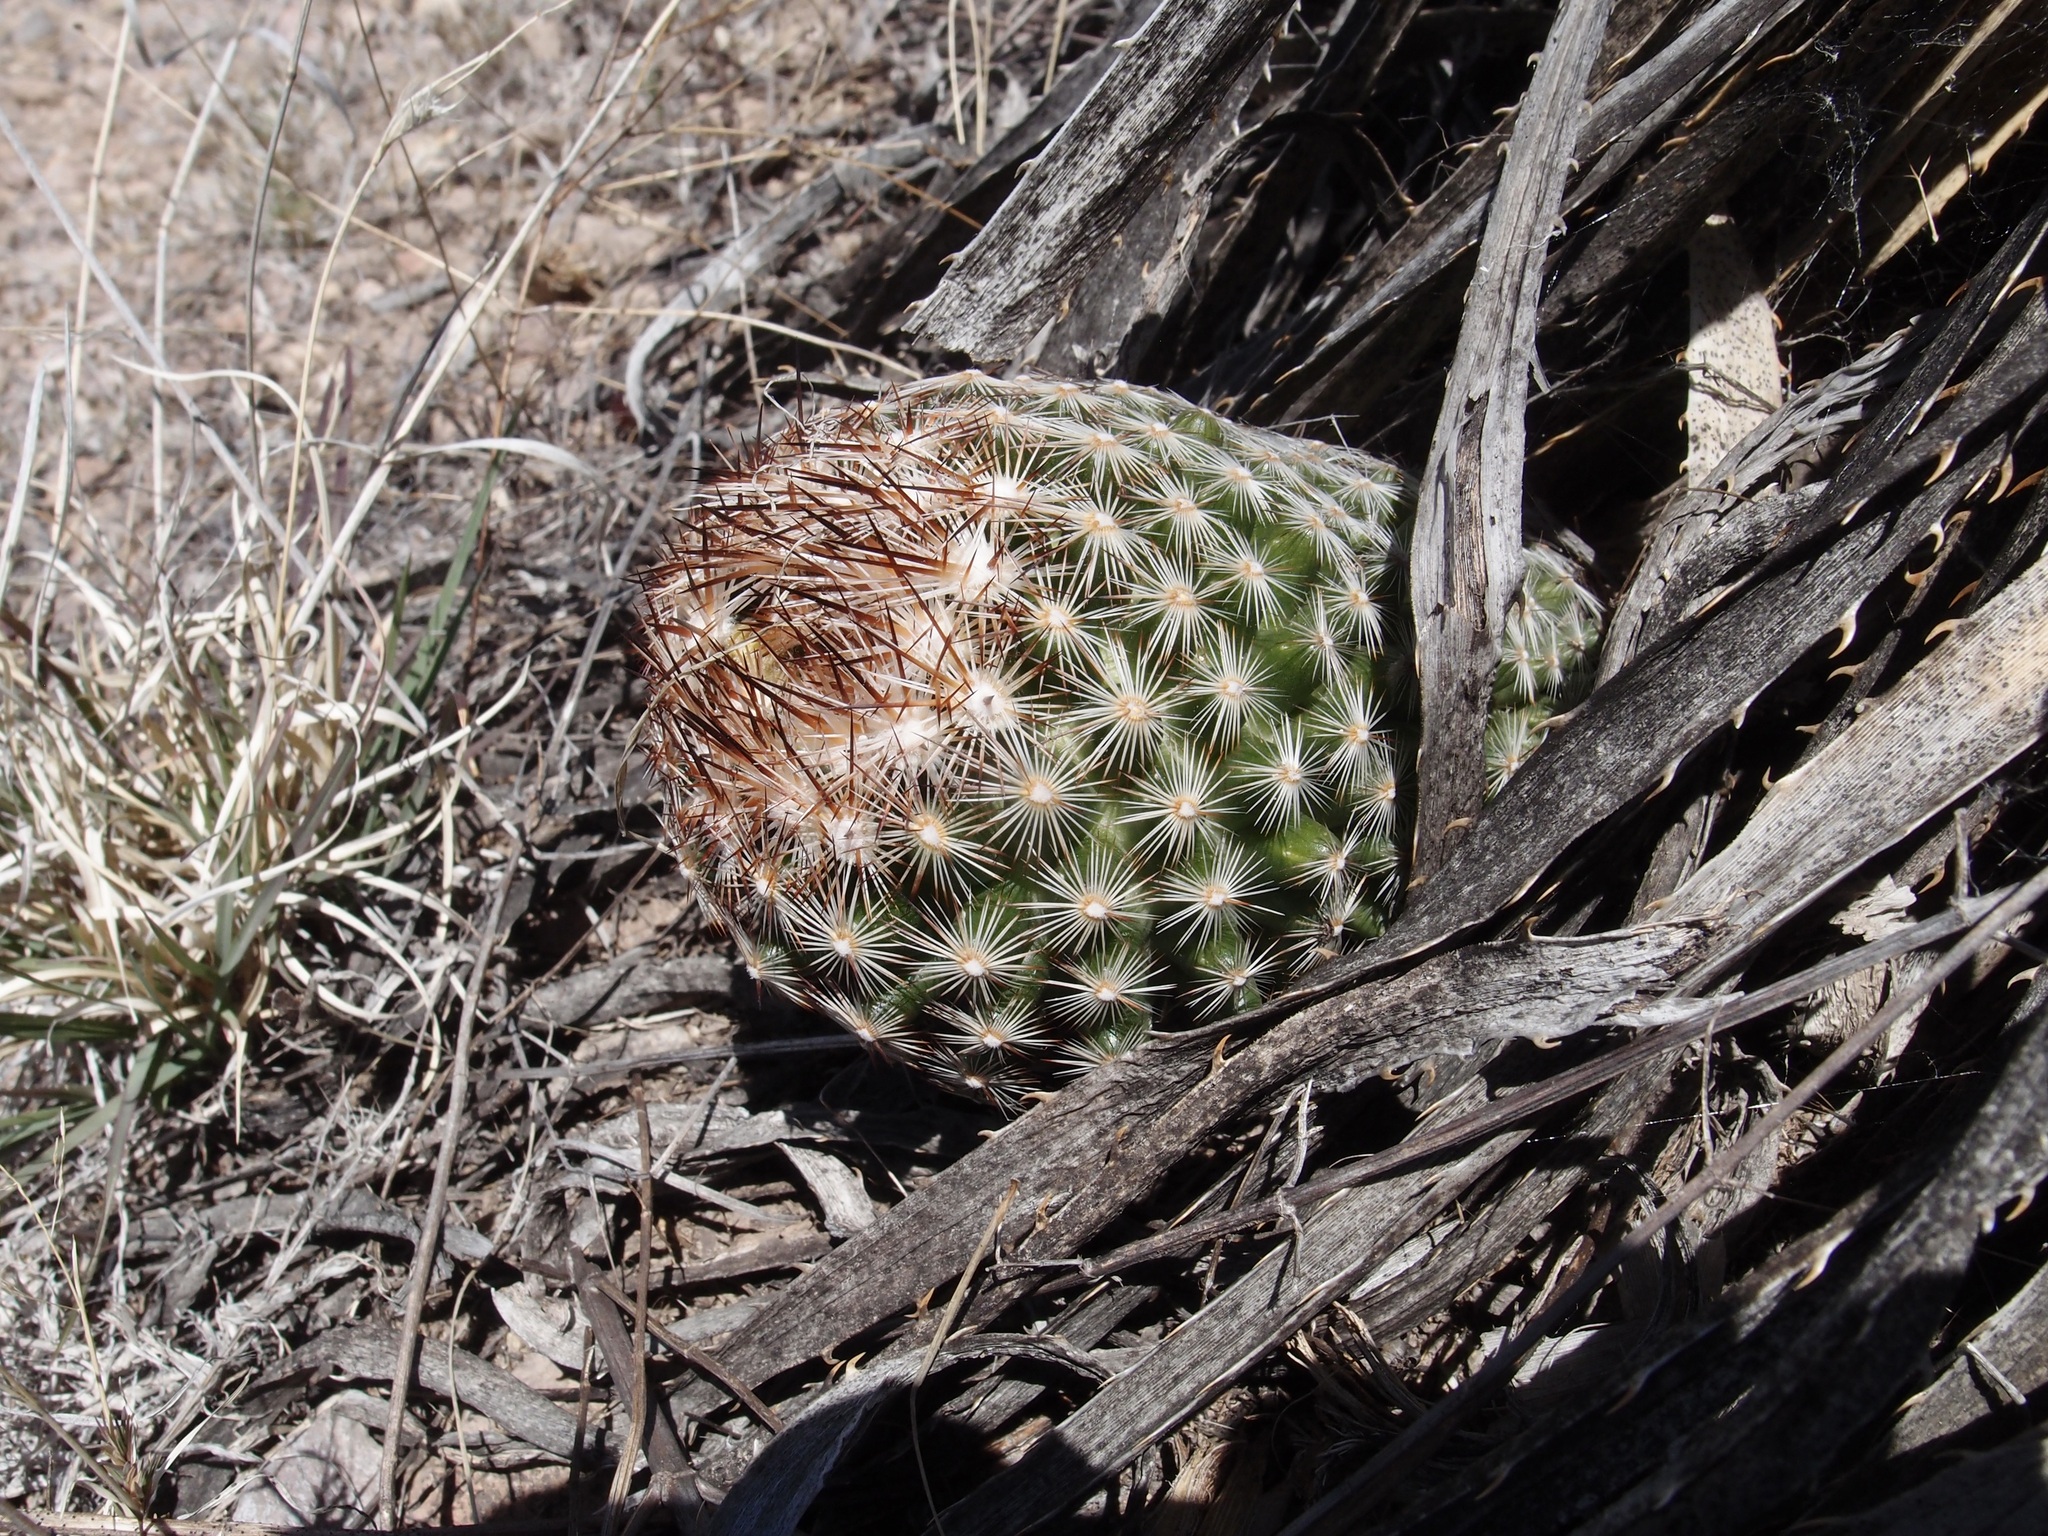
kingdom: Plantae
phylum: Tracheophyta
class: Magnoliopsida
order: Caryophyllales
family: Cactaceae
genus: Pelecyphora
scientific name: Pelecyphora vivipara
